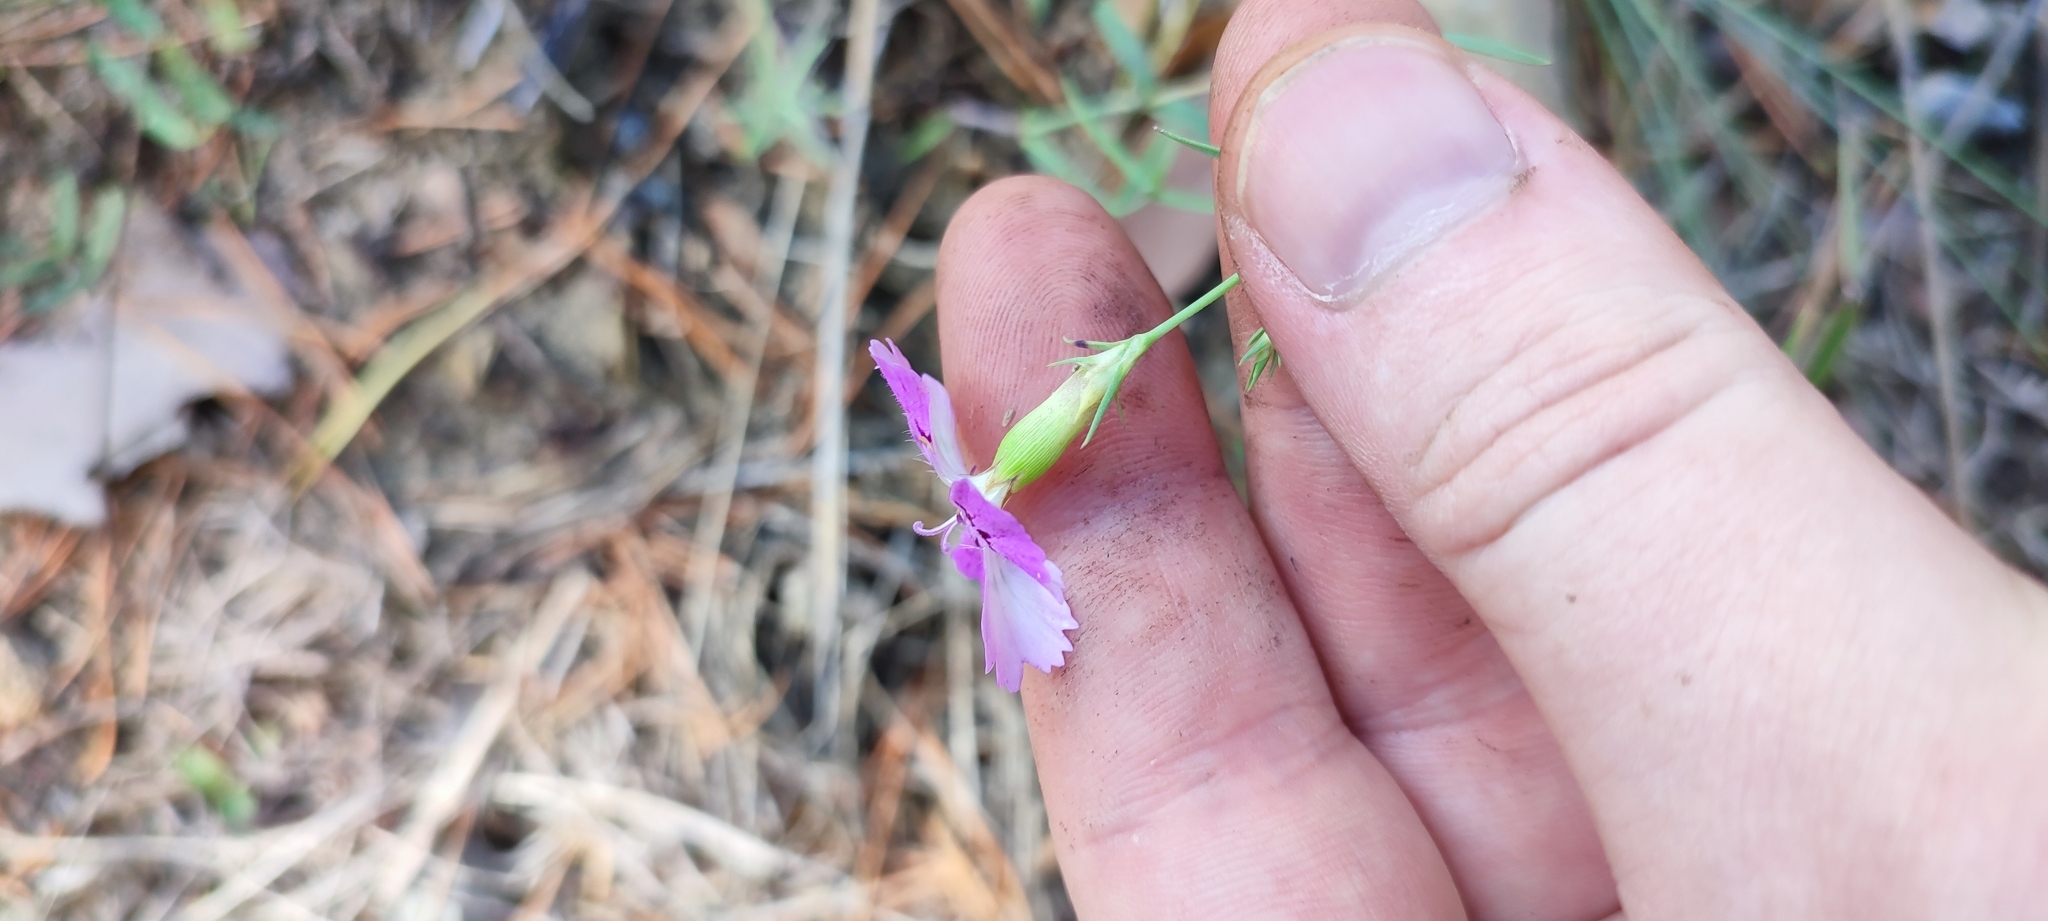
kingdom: Plantae
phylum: Tracheophyta
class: Magnoliopsida
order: Caryophyllales
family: Caryophyllaceae
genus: Dianthus
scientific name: Dianthus chinensis
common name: Rainbow pink
